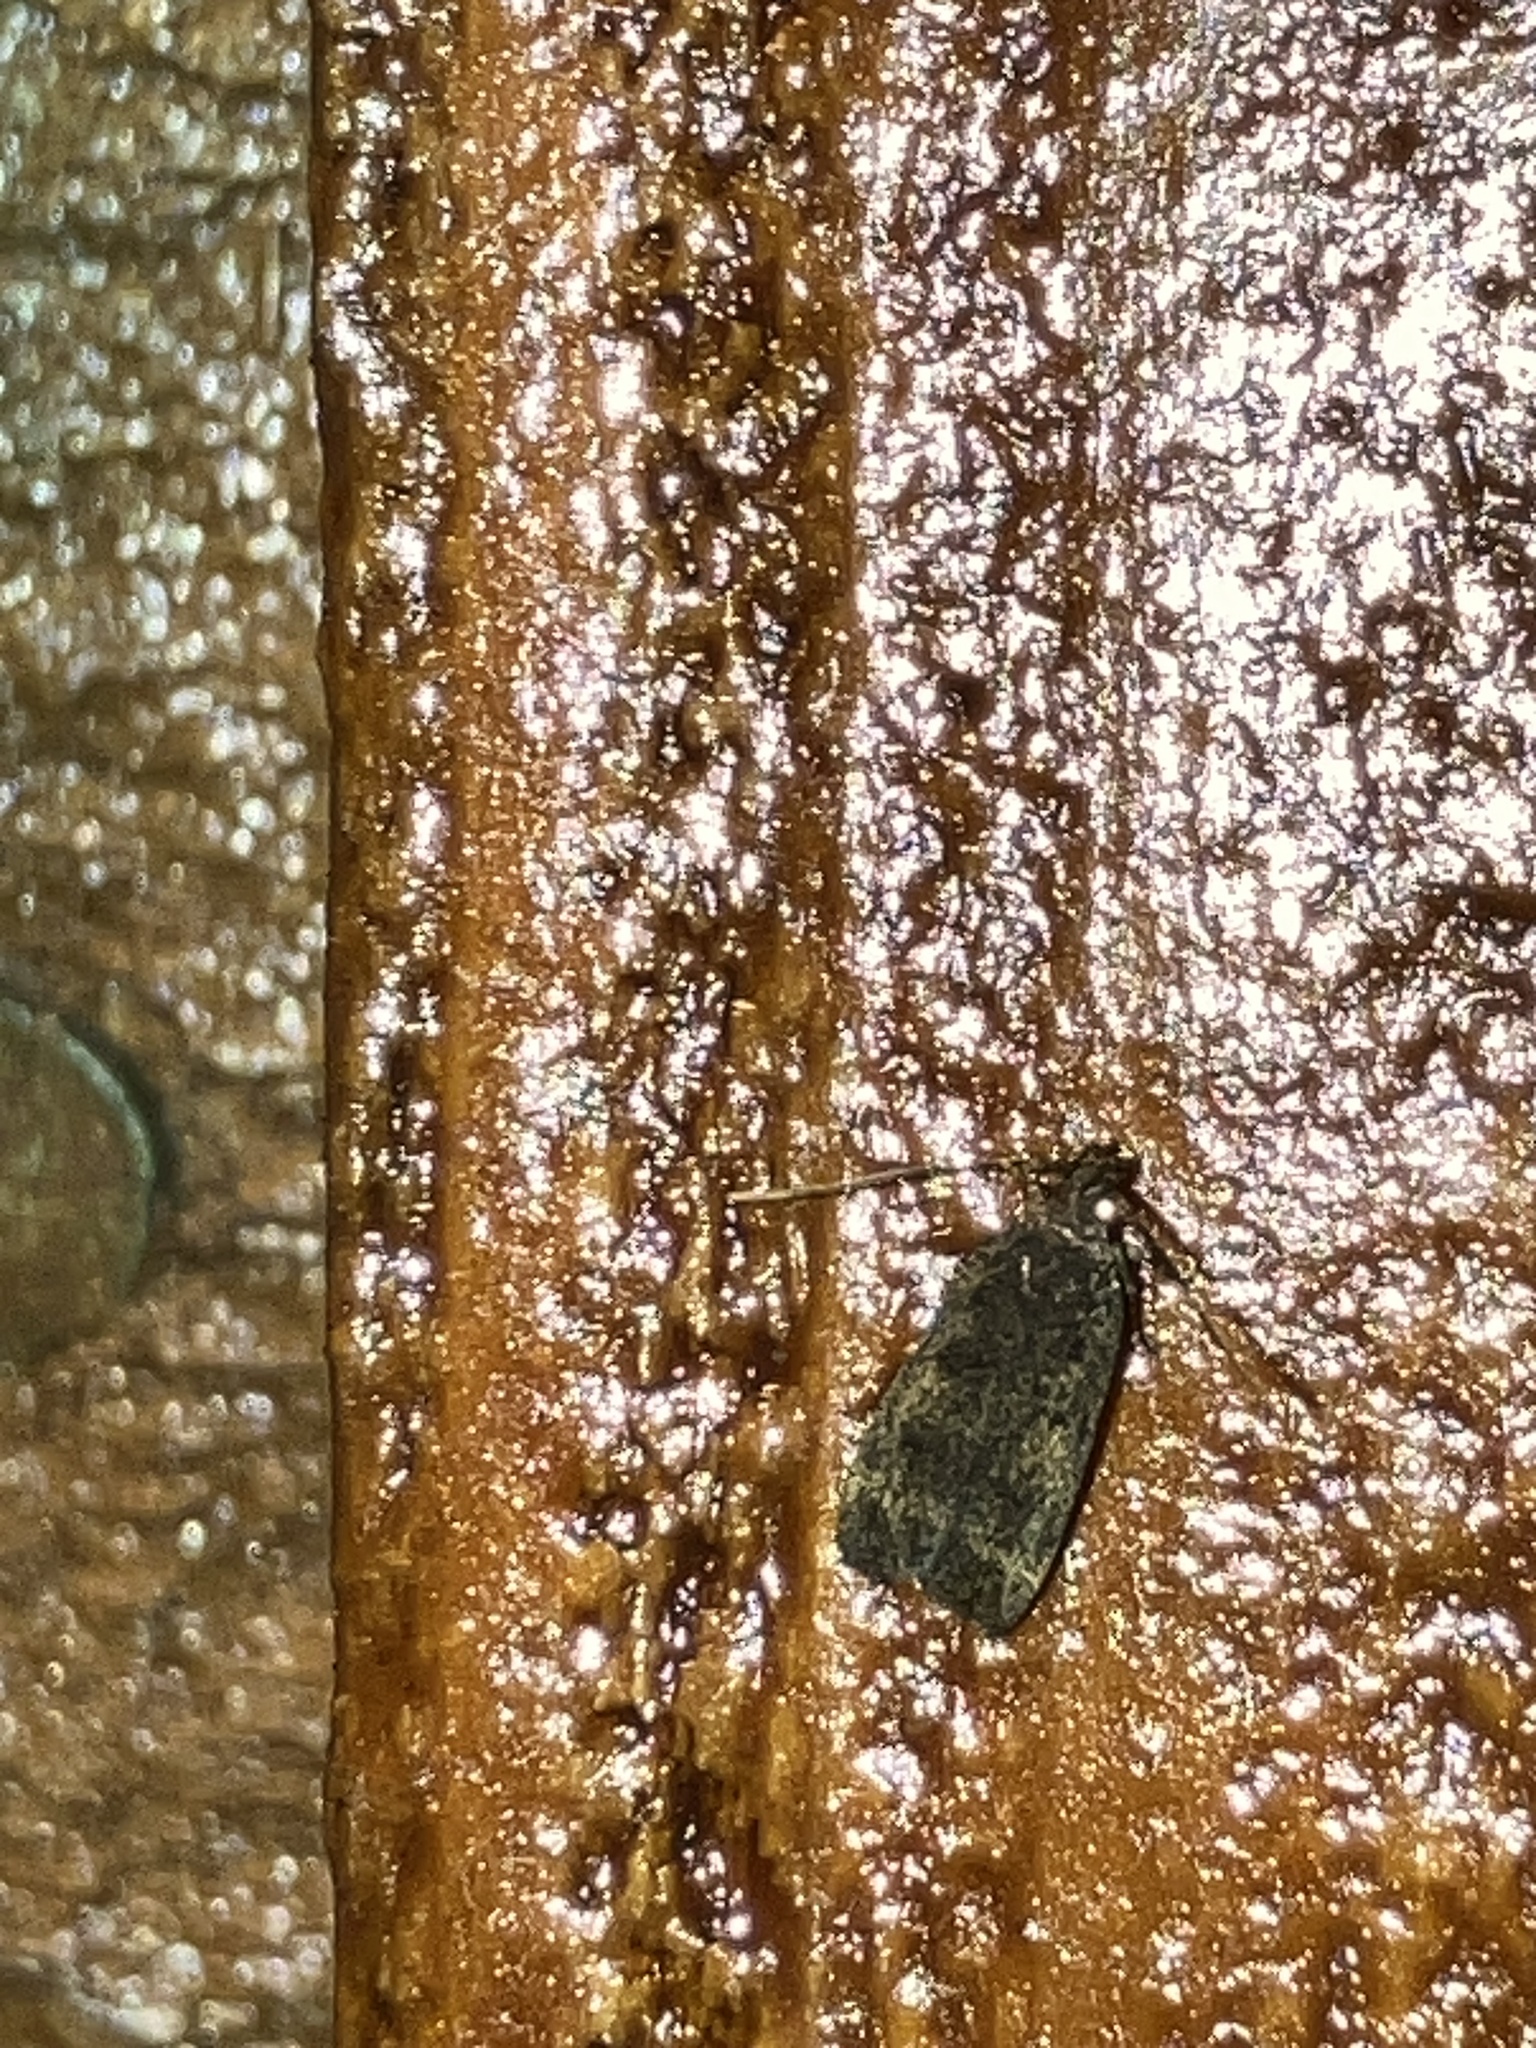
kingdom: Animalia
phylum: Arthropoda
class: Insecta
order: Lepidoptera
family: Autostichidae
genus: Glyphidocera
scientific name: Glyphidocera floridanella
